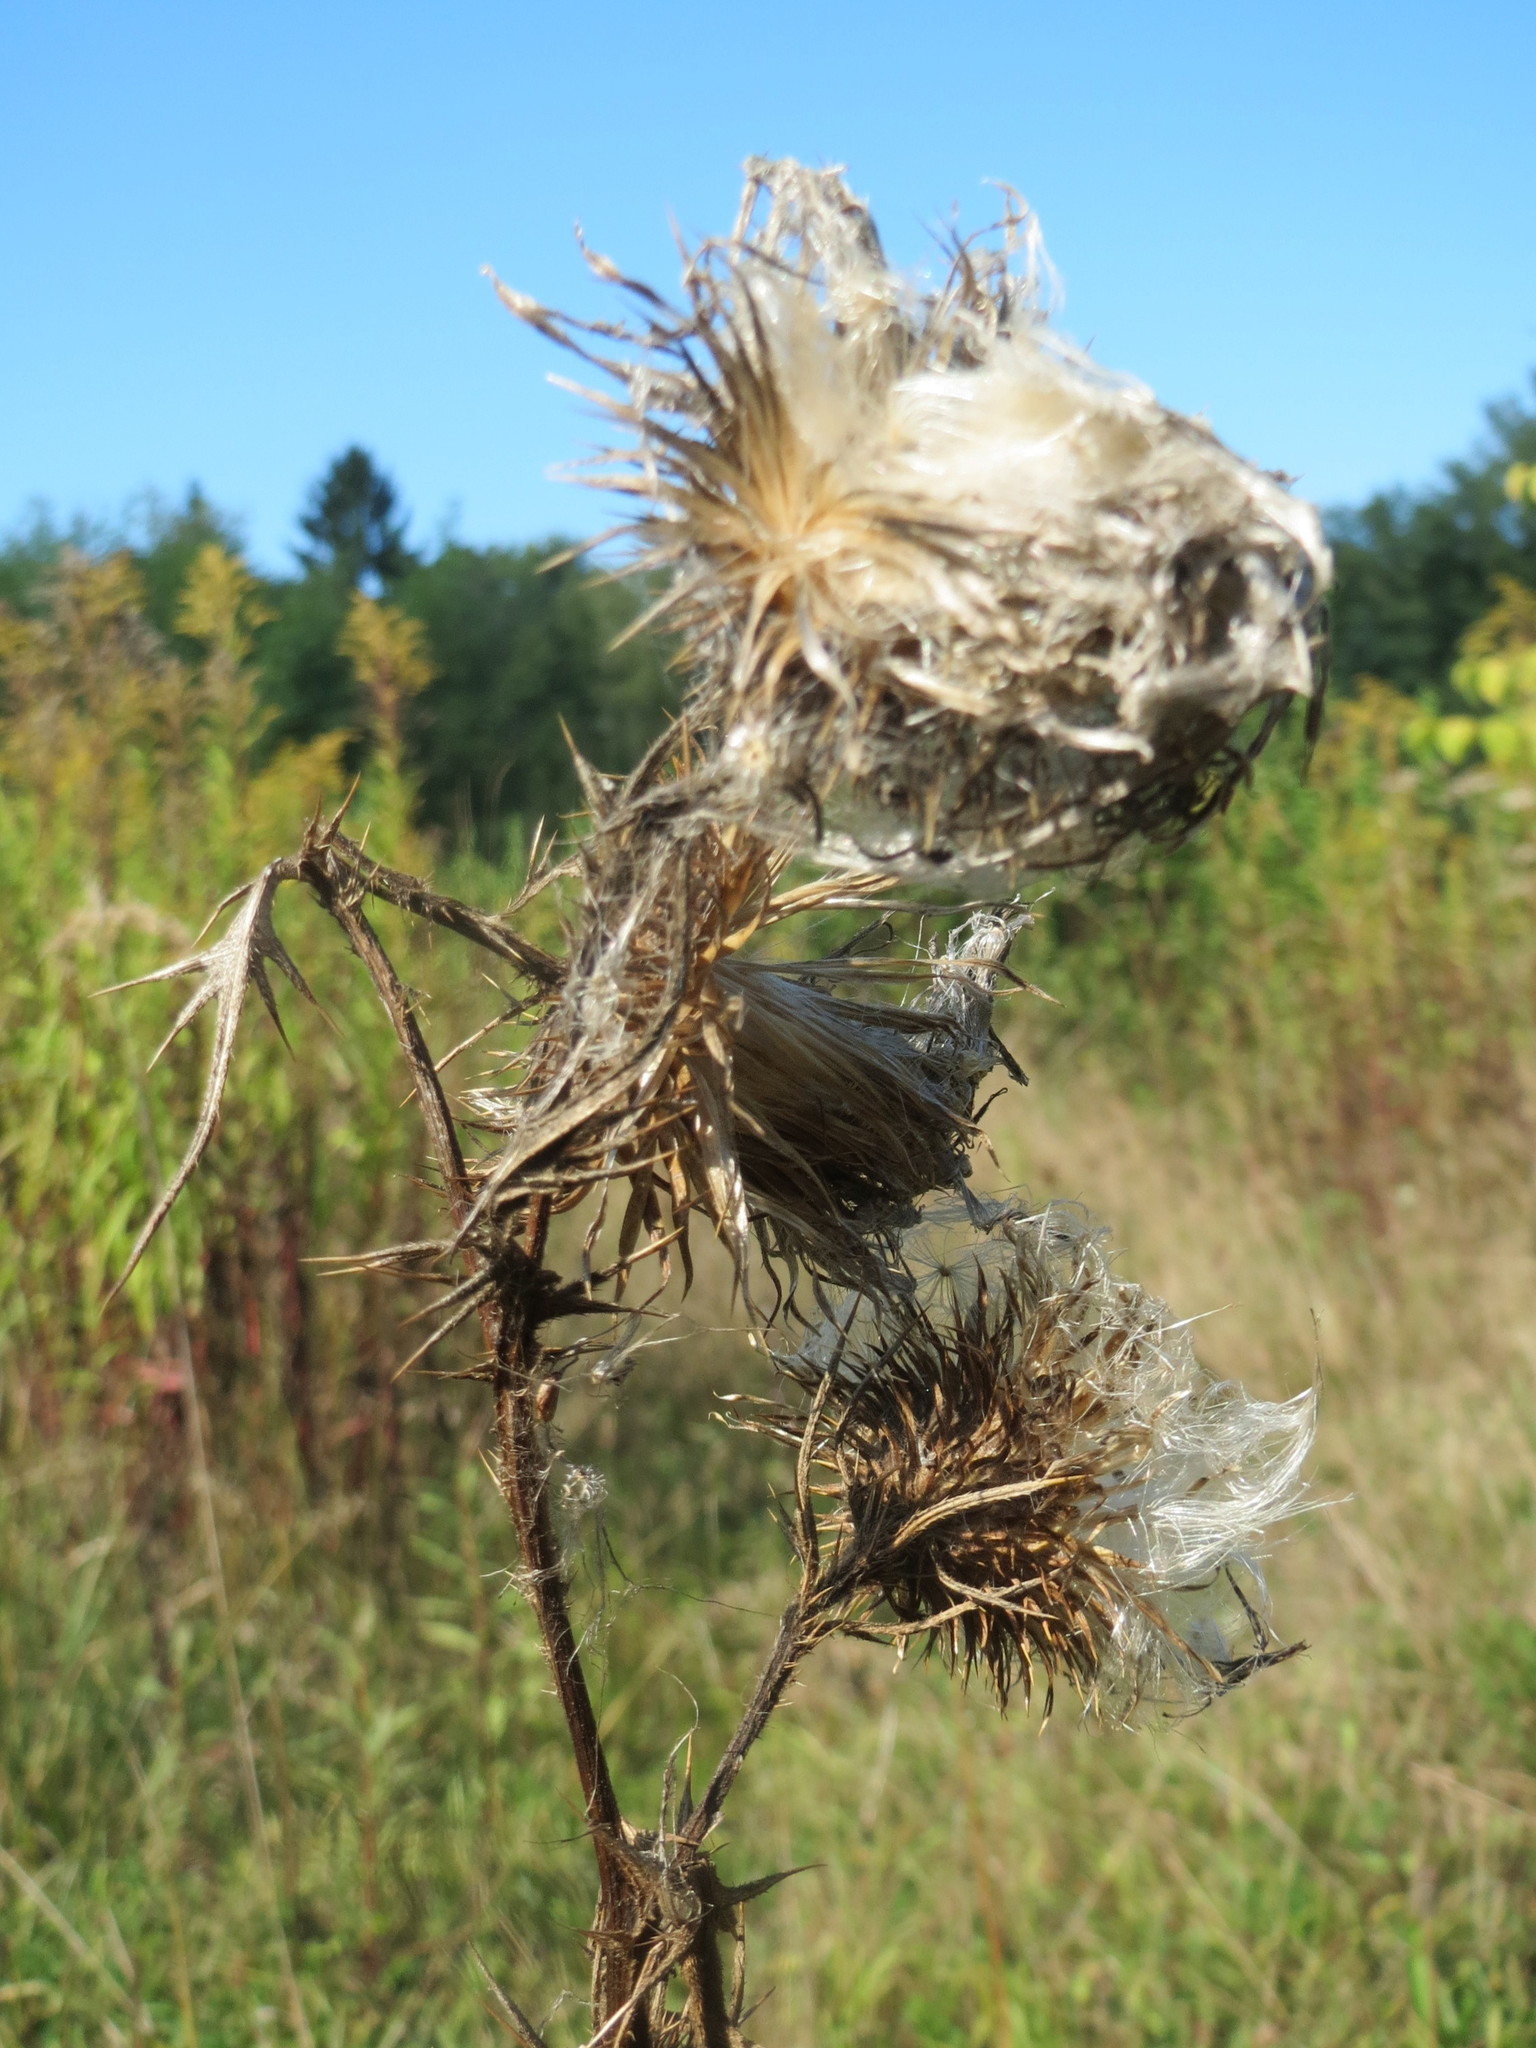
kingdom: Plantae
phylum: Tracheophyta
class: Magnoliopsida
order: Asterales
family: Asteraceae
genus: Cirsium
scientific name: Cirsium vulgare
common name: Bull thistle
